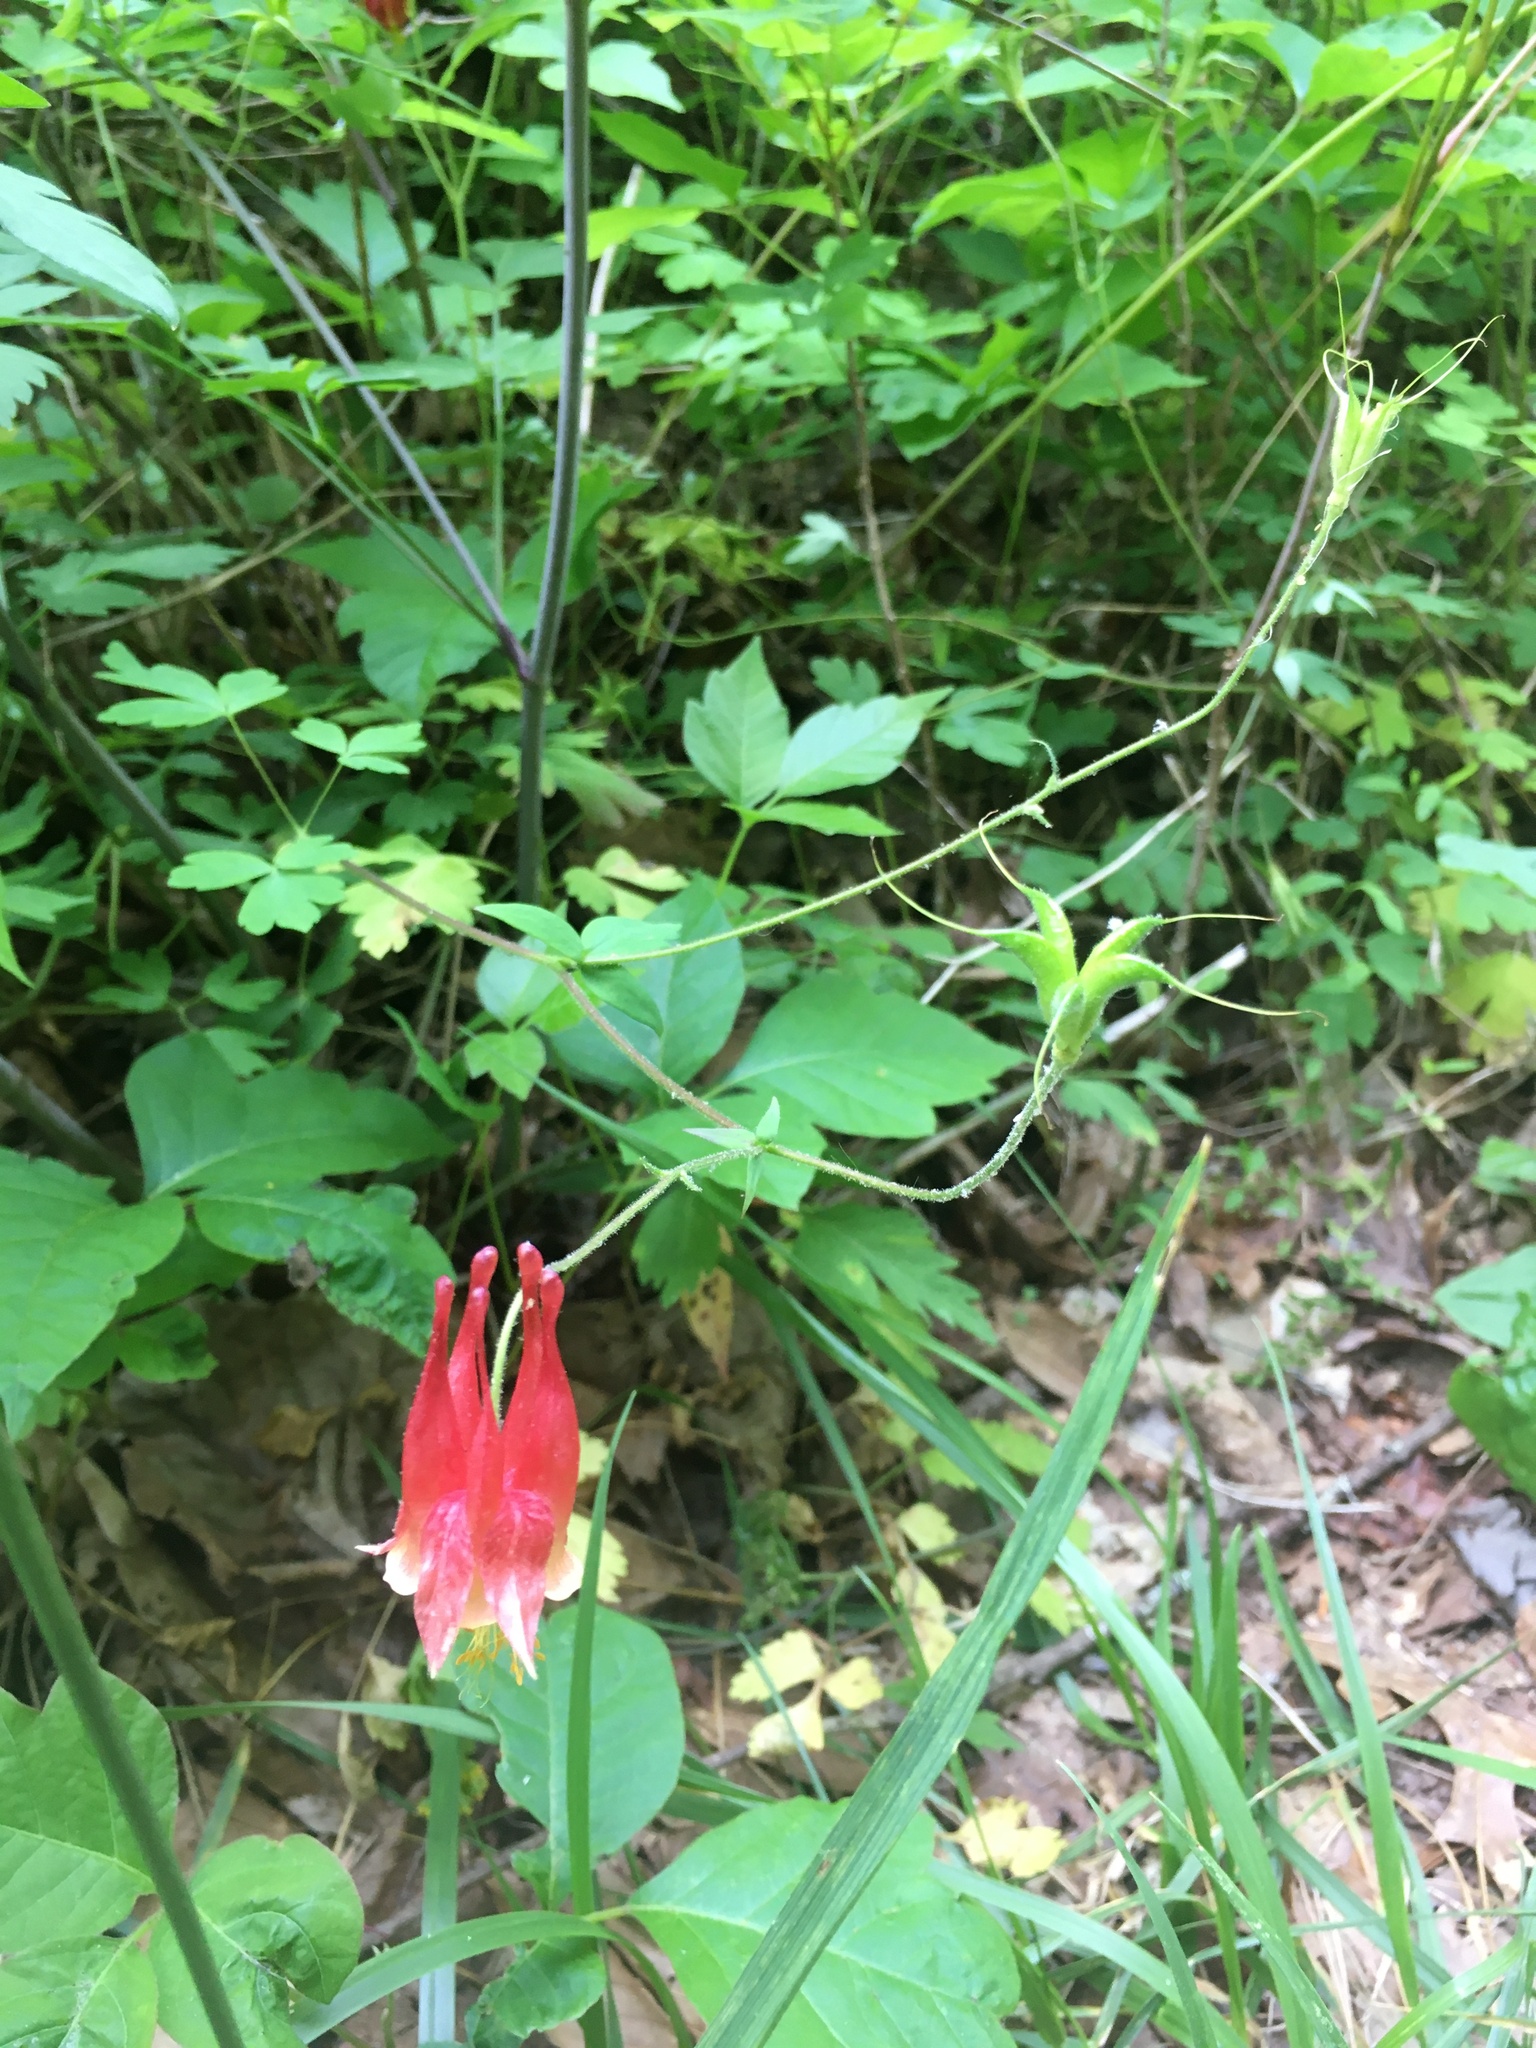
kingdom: Plantae
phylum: Tracheophyta
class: Magnoliopsida
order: Ranunculales
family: Ranunculaceae
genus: Aquilegia
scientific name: Aquilegia canadensis
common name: American columbine
